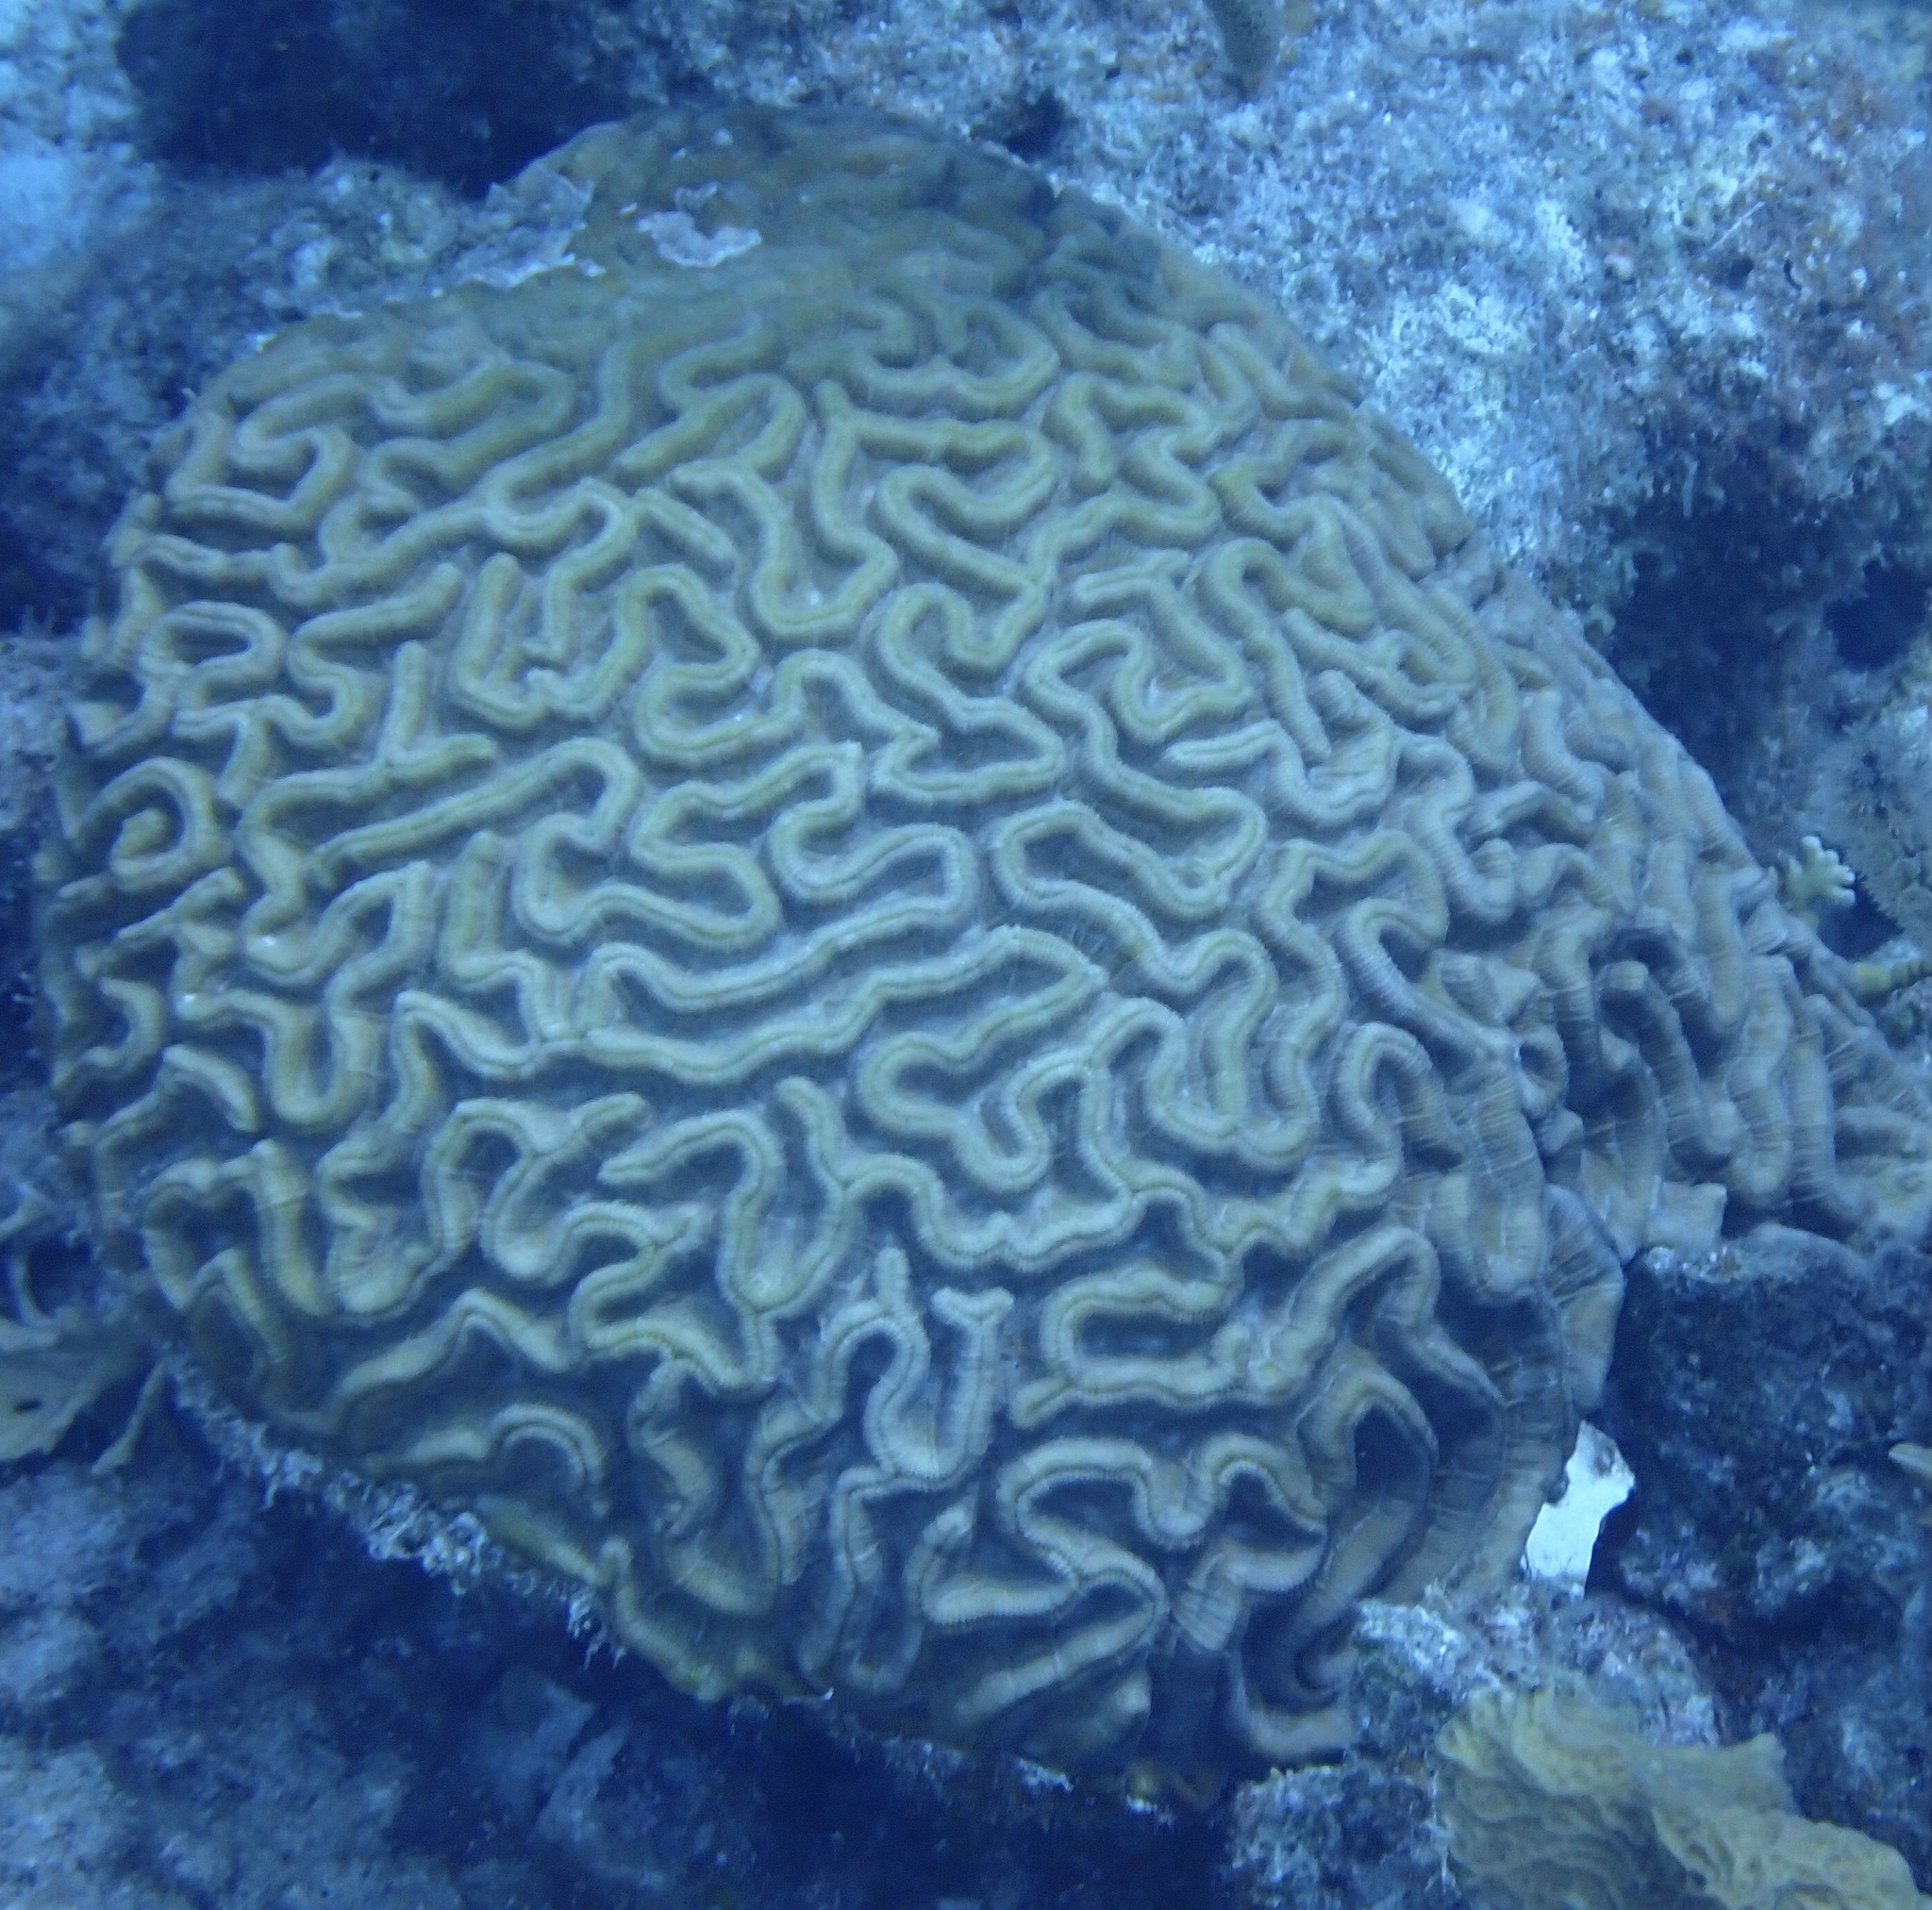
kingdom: Animalia
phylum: Cnidaria
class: Anthozoa
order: Scleractinia
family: Faviidae
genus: Colpophyllia
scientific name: Colpophyllia natans
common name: Boulder brain coral
